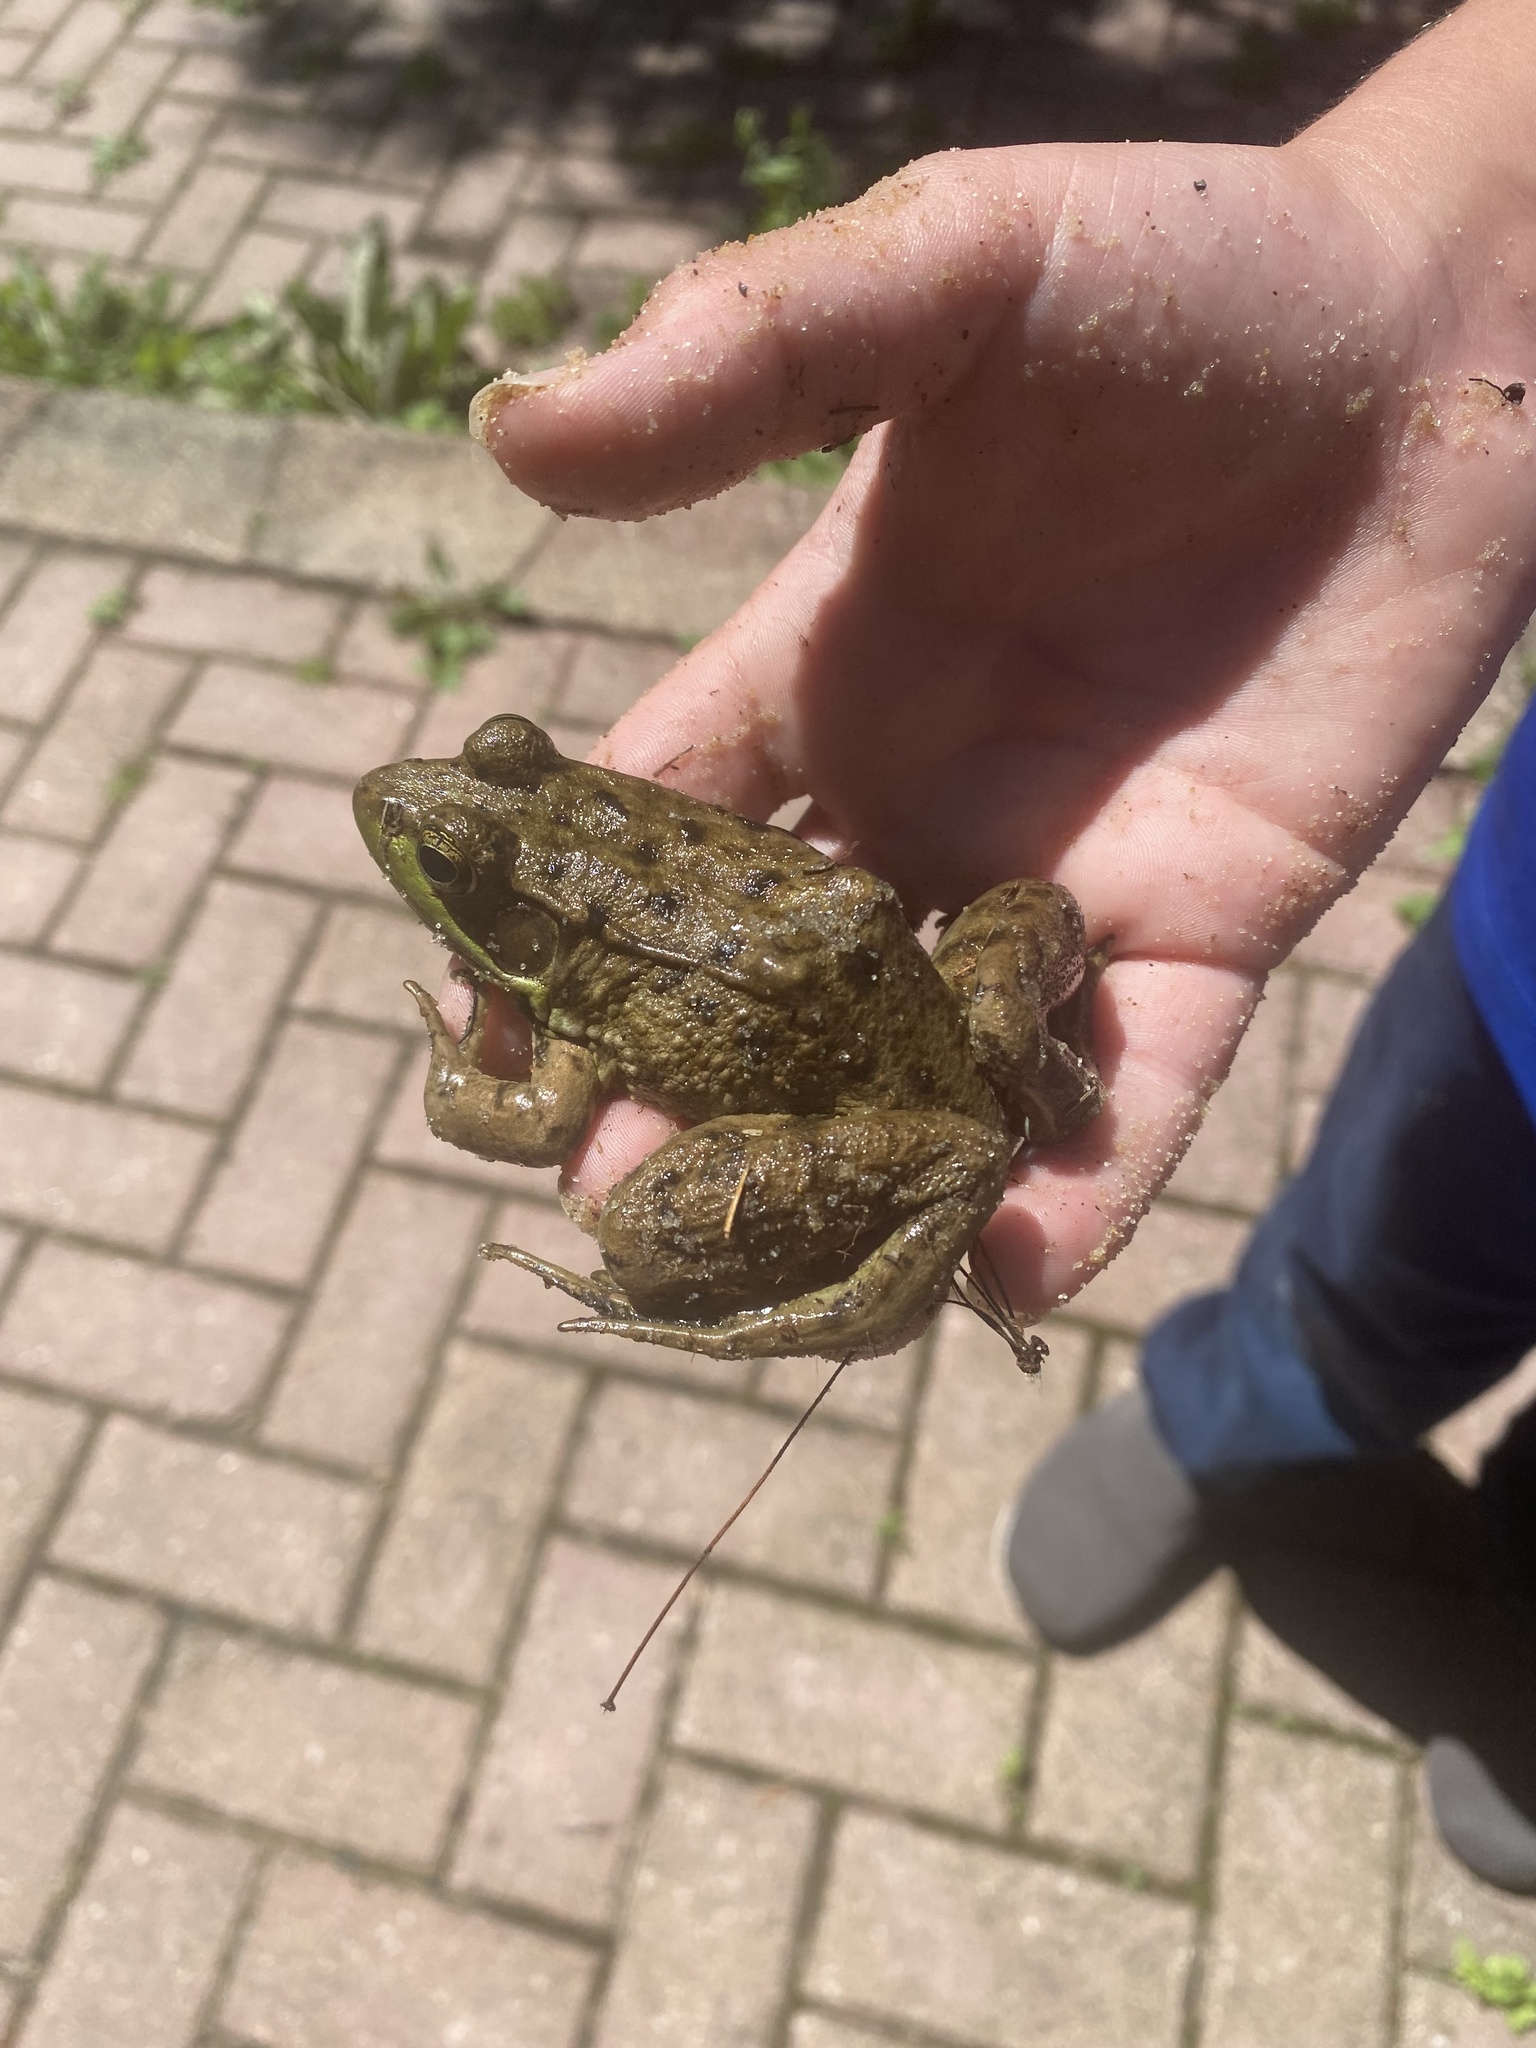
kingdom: Animalia
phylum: Chordata
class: Amphibia
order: Anura
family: Ranidae
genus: Lithobates
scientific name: Lithobates clamitans
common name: Green frog
